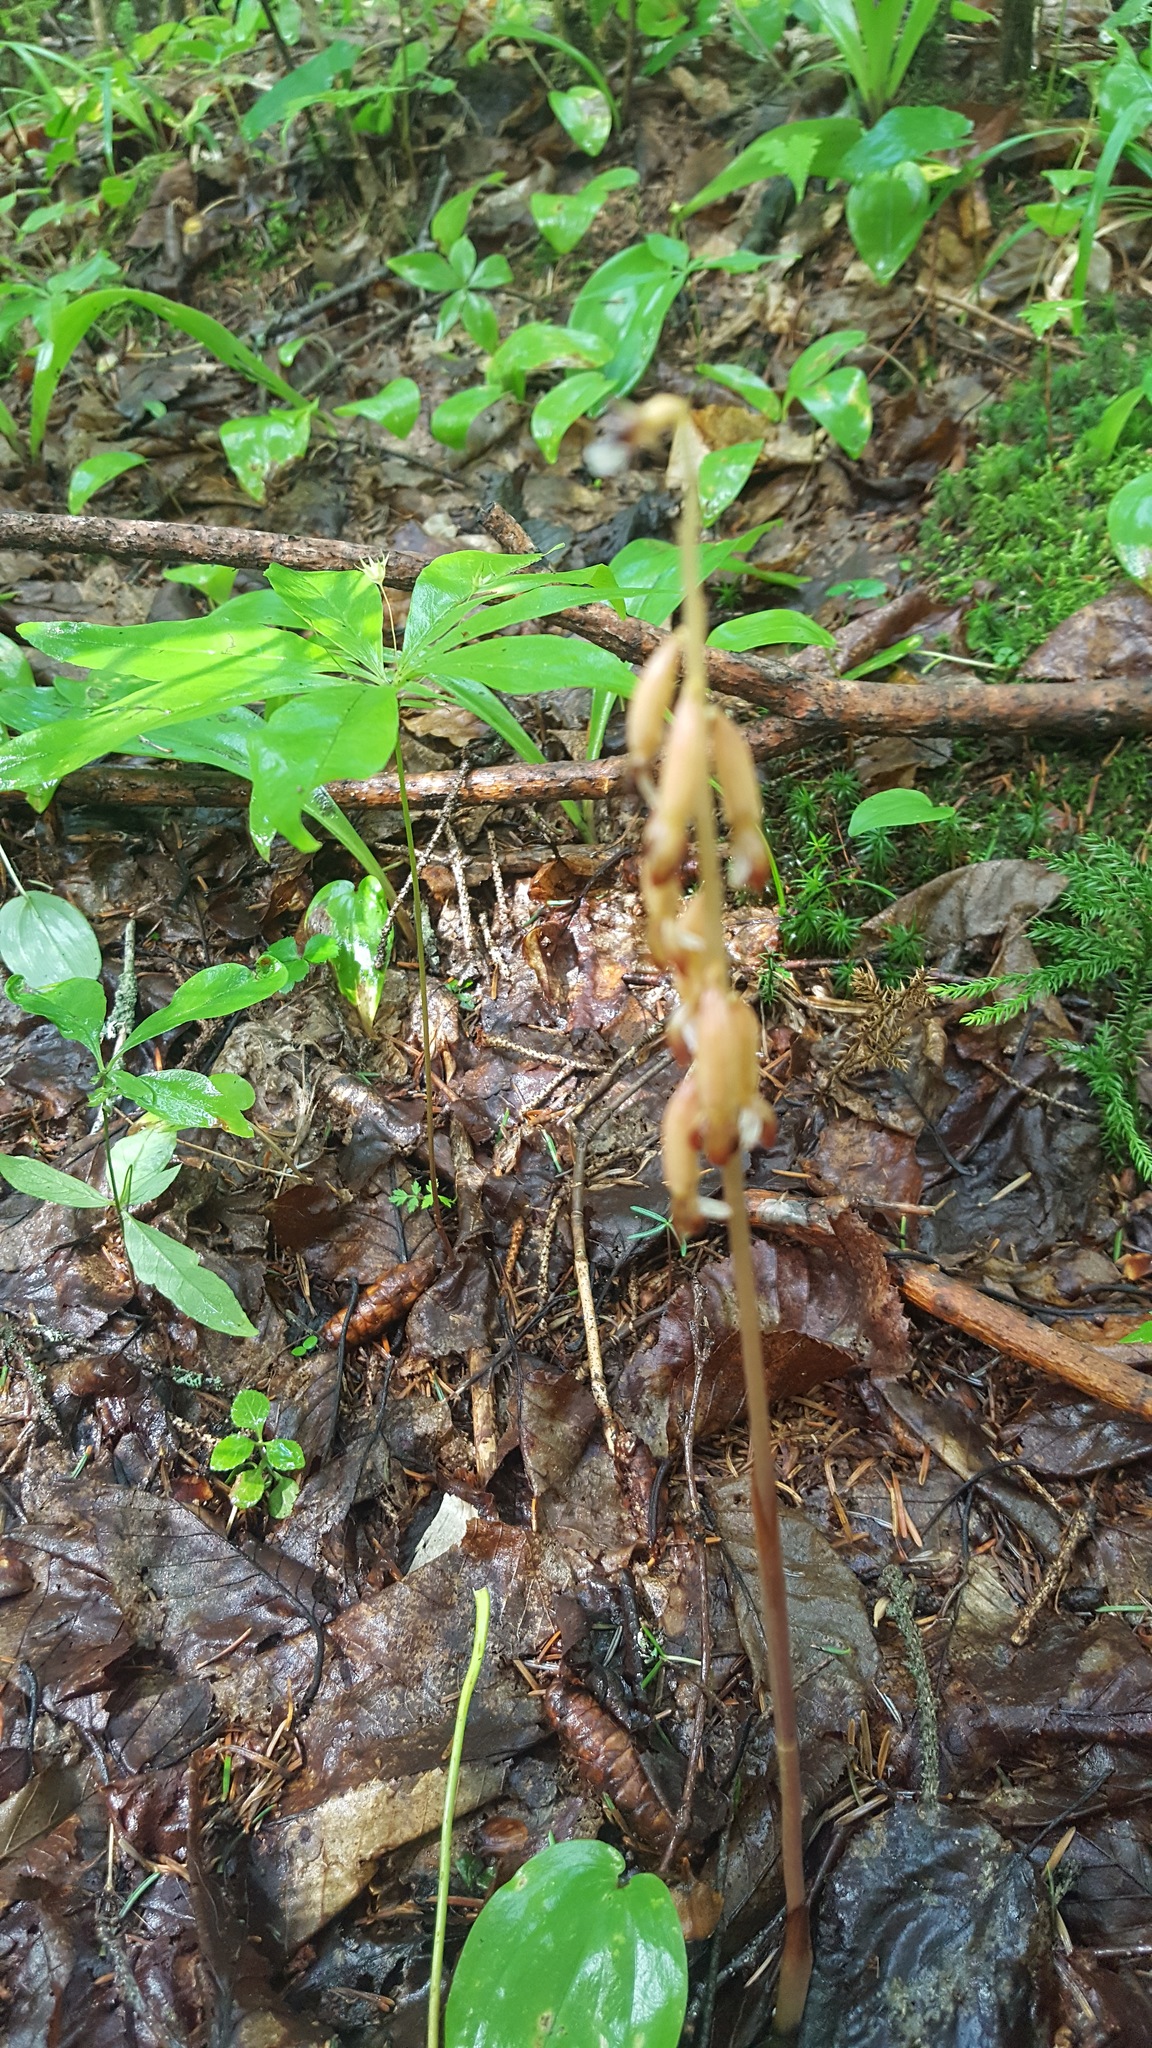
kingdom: Plantae
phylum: Tracheophyta
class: Liliopsida
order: Asparagales
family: Orchidaceae
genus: Corallorhiza
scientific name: Corallorhiza maculata
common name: Spotted coralroot
